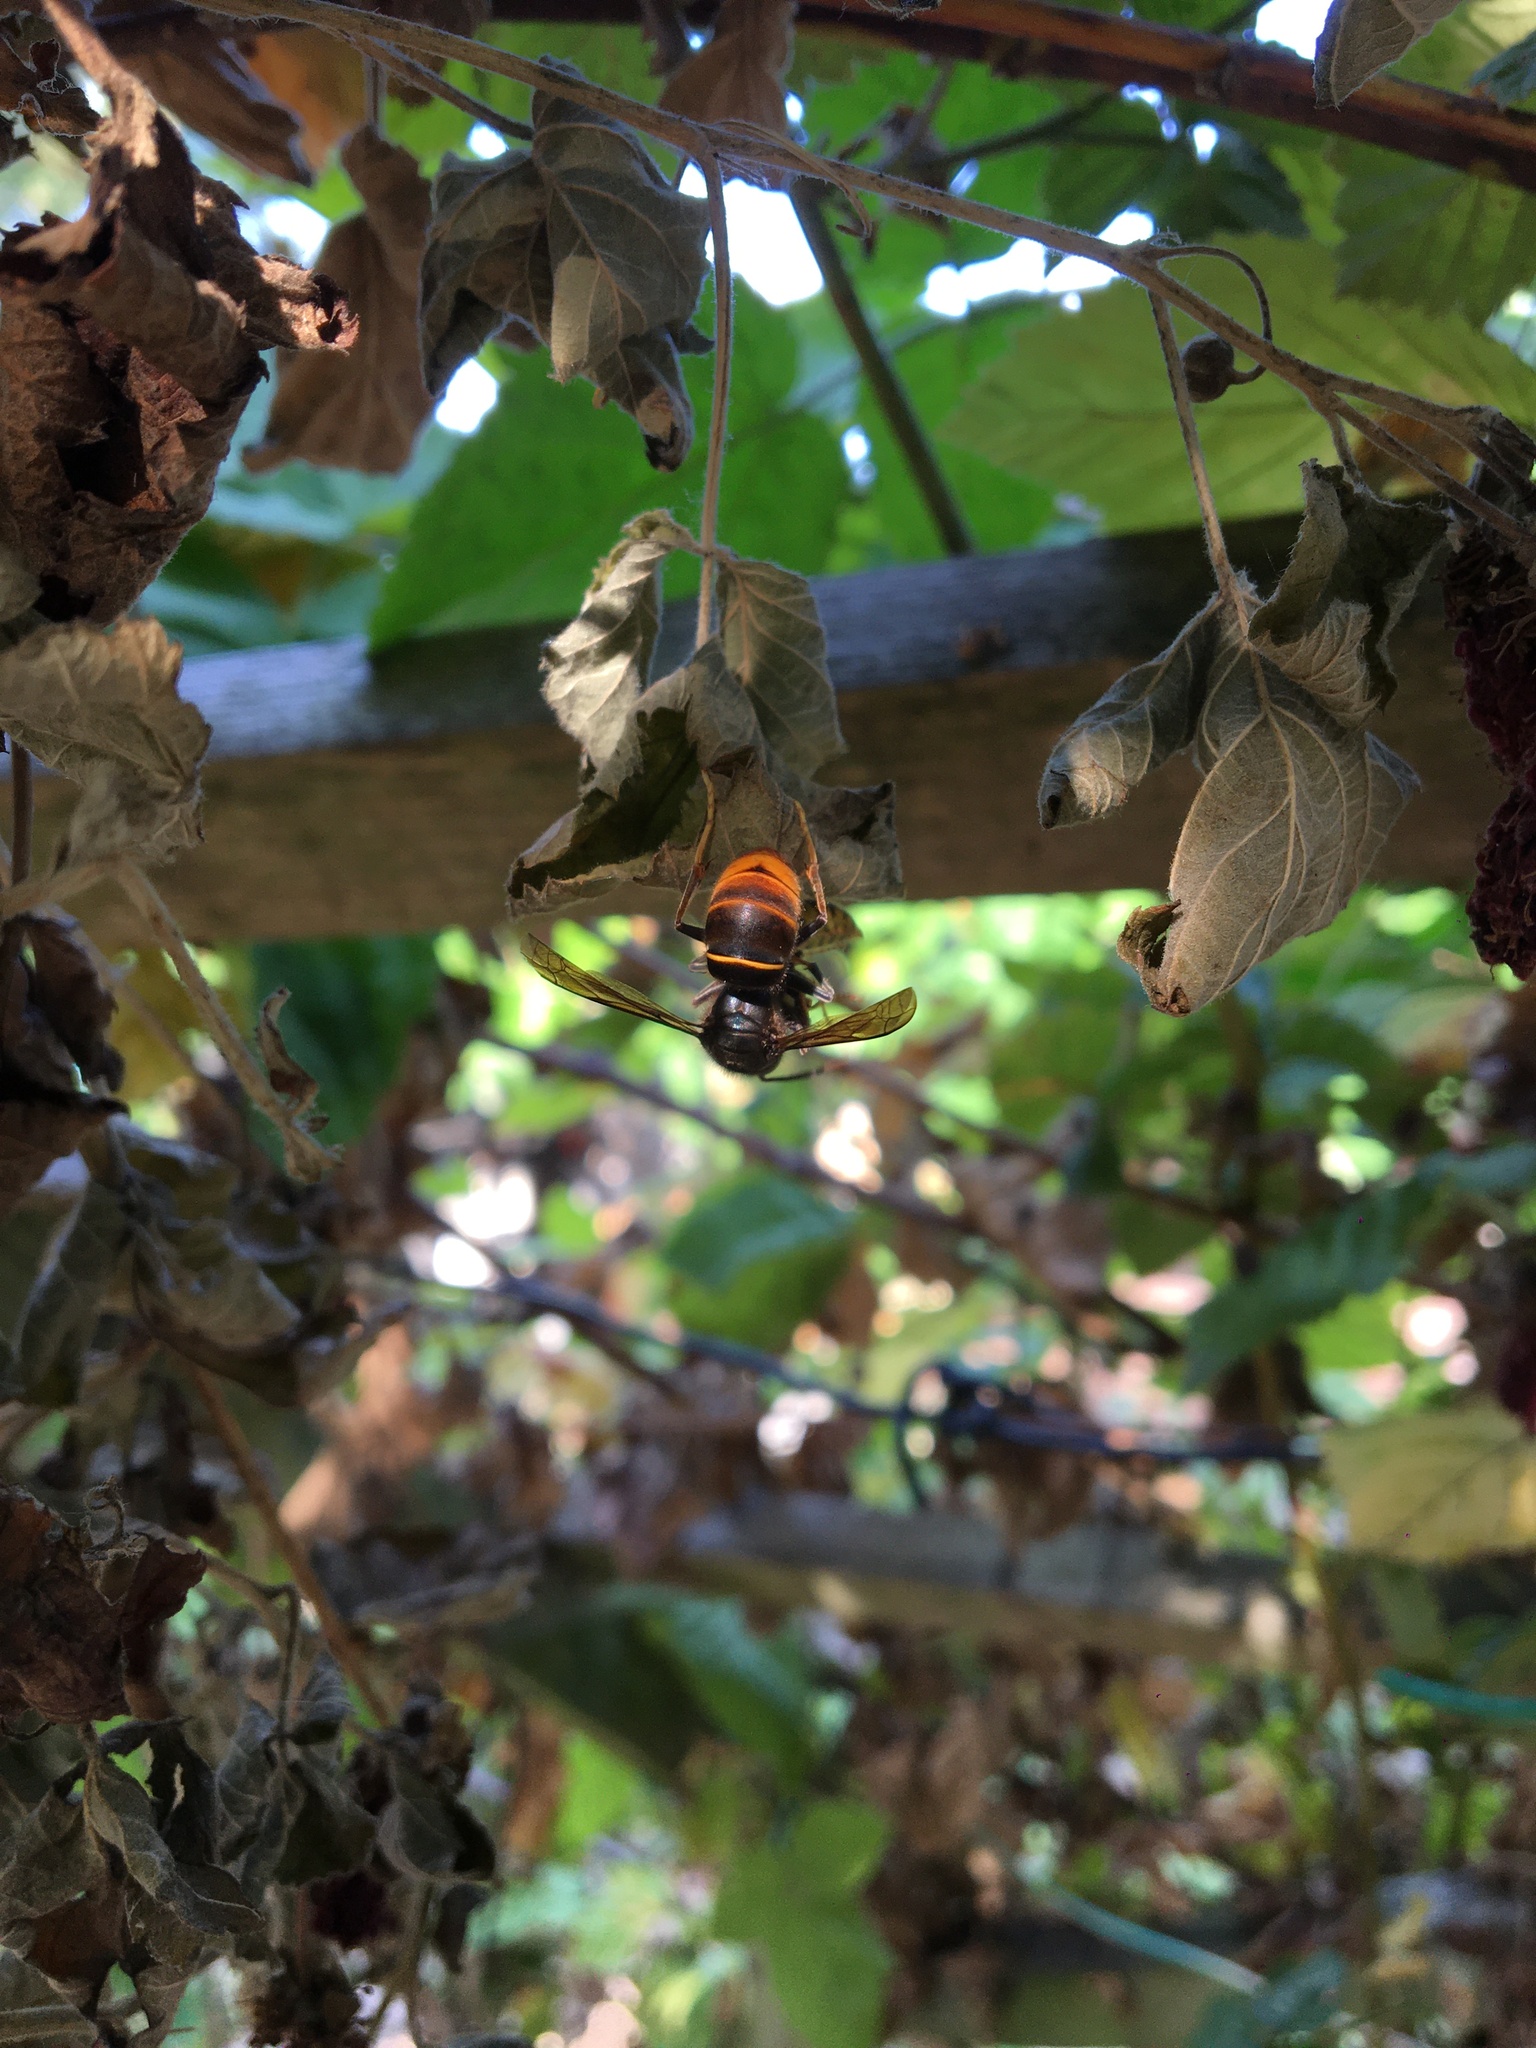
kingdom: Animalia
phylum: Arthropoda
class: Insecta
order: Hymenoptera
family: Vespidae
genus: Vespa
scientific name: Vespa velutina
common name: Asian hornet
